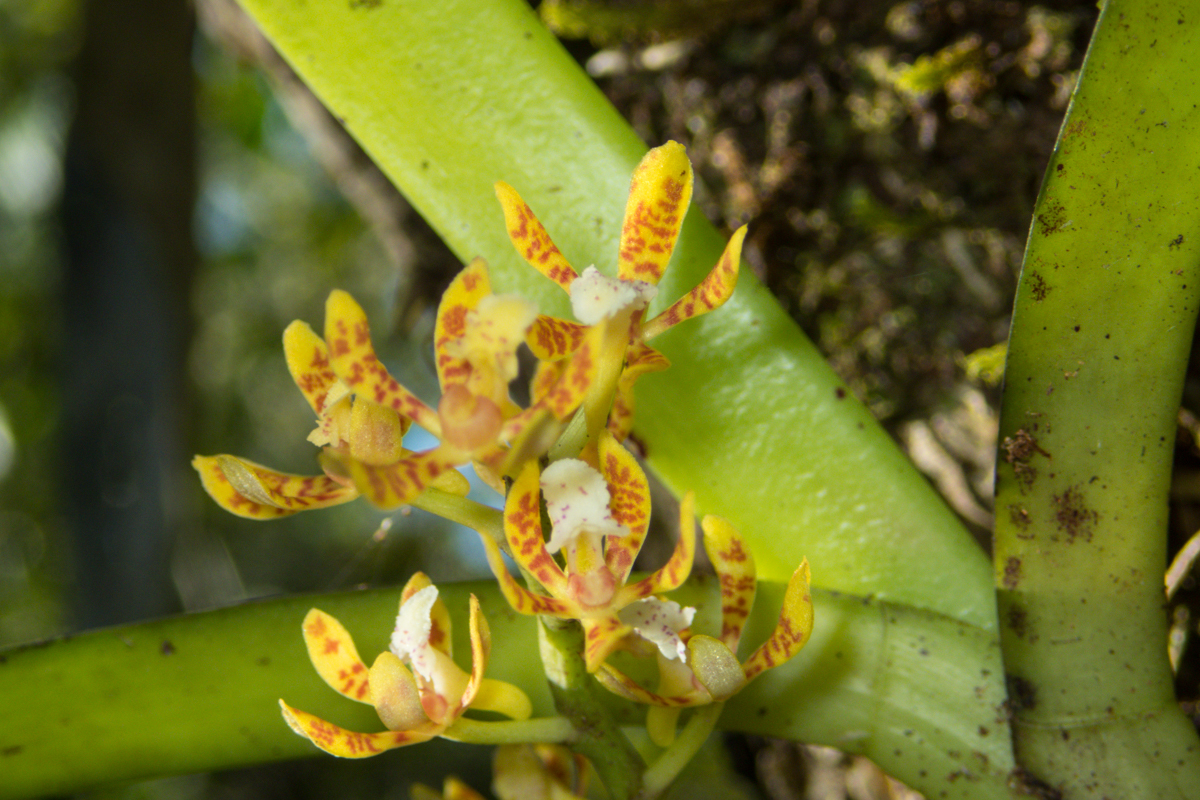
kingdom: Plantae
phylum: Tracheophyta
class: Liliopsida
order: Asparagales
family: Orchidaceae
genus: Acampe
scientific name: Acampe ochracea
